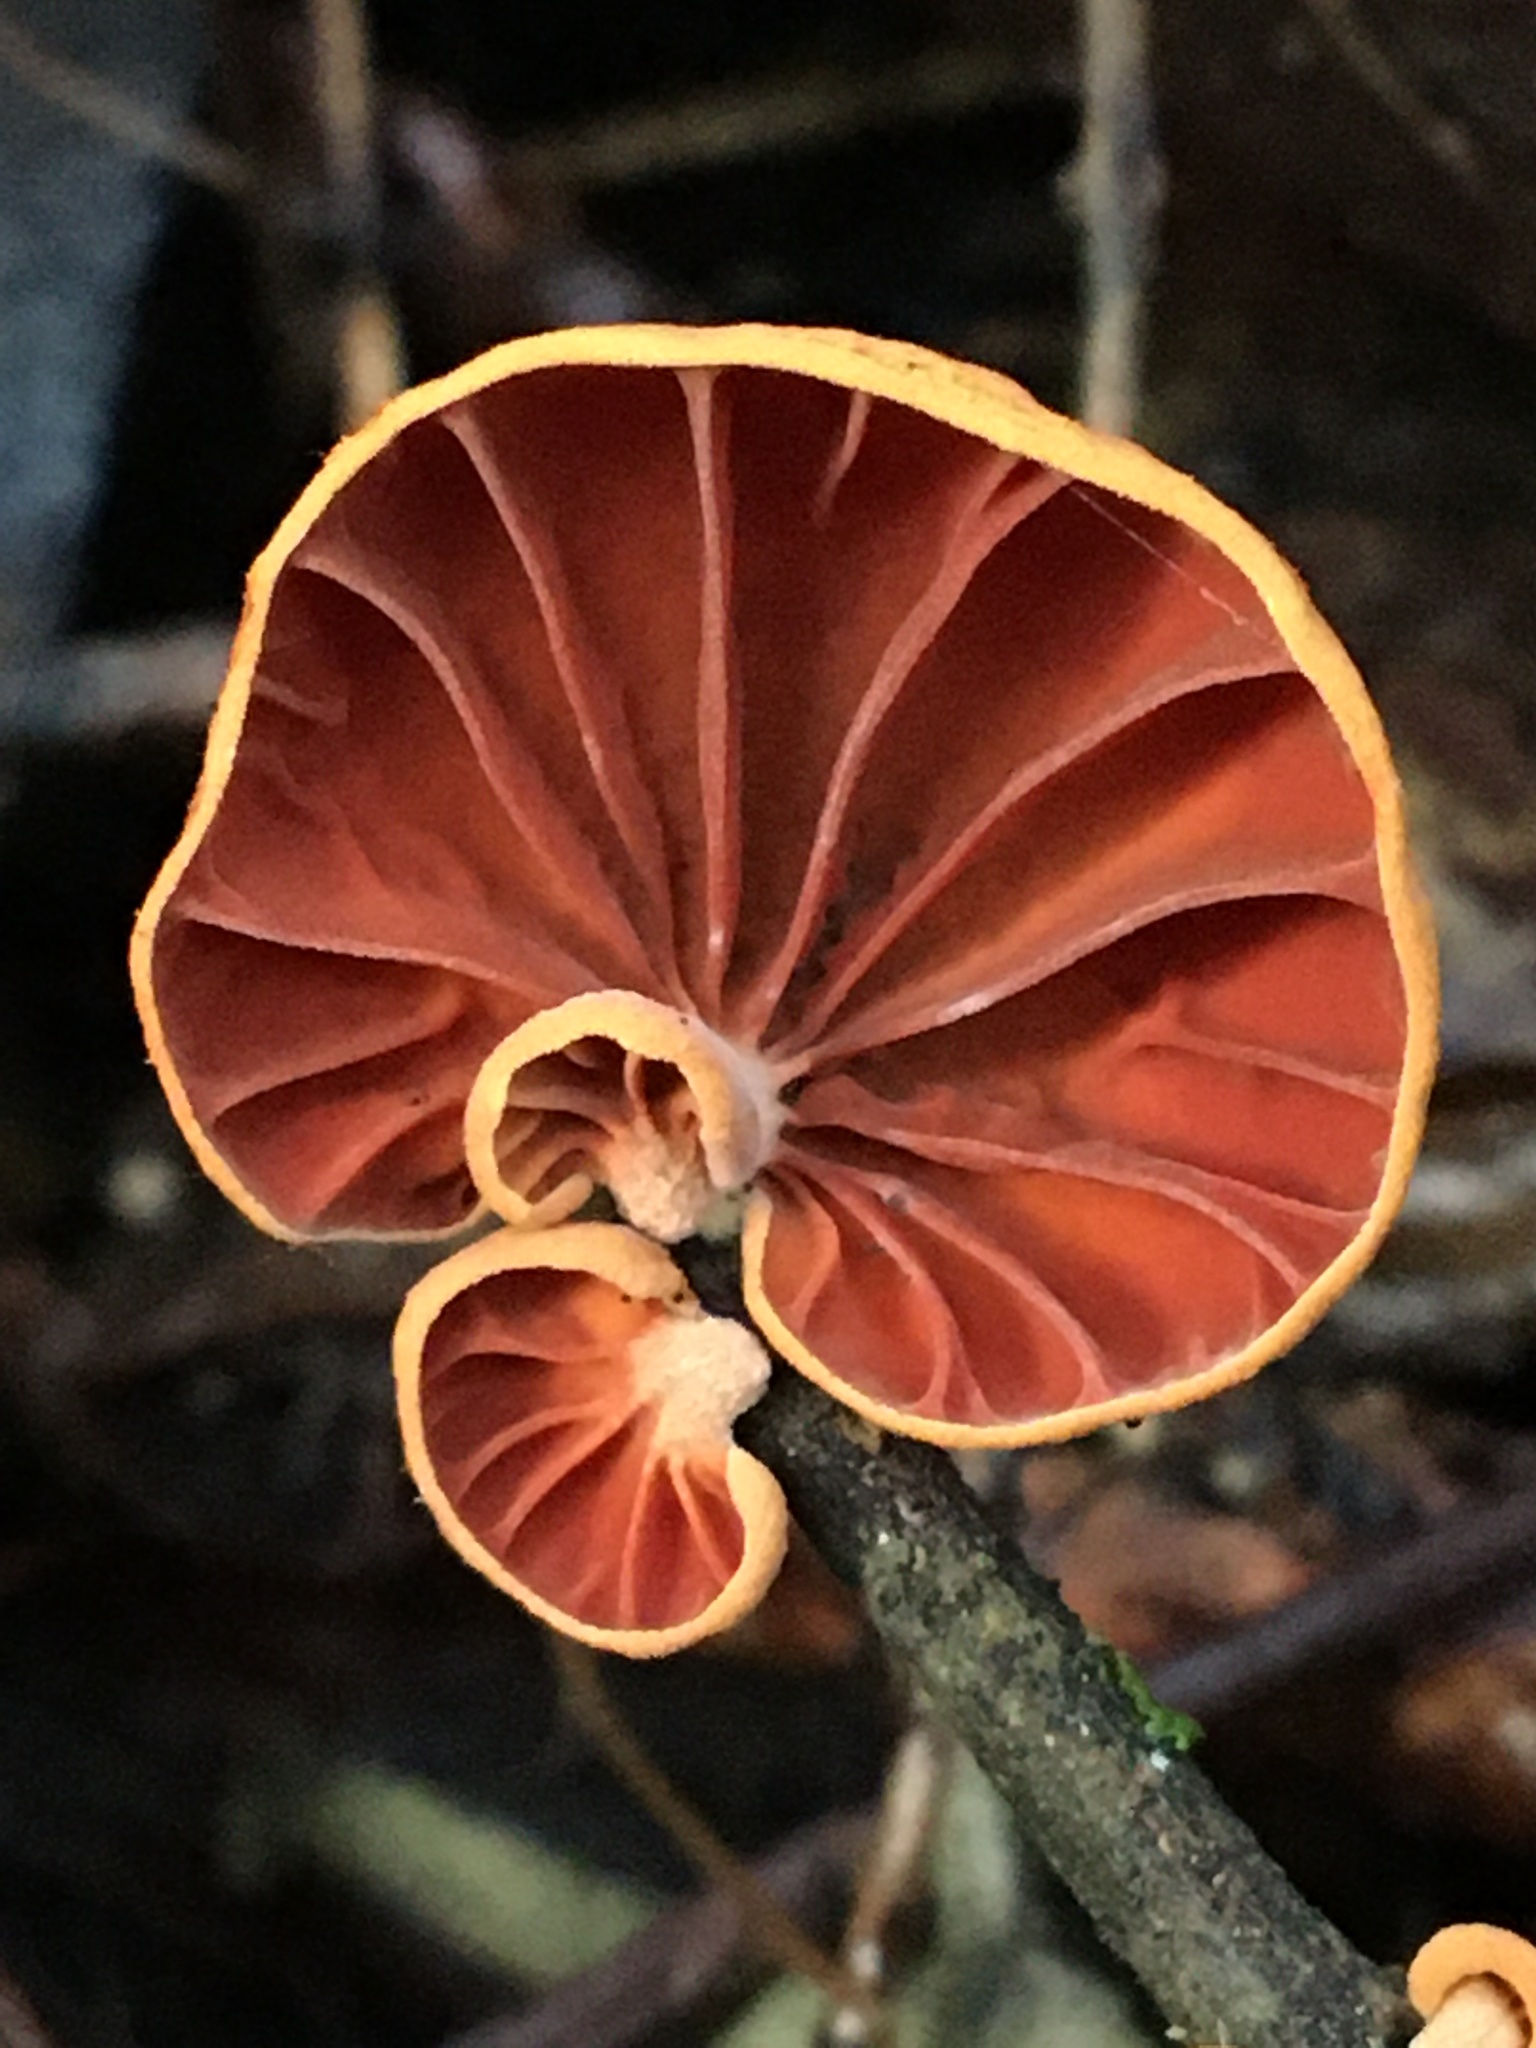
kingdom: Fungi
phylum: Basidiomycota
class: Agaricomycetes
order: Agaricales
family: Omphalotaceae
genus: Anthracophyllum
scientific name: Anthracophyllum archeri
